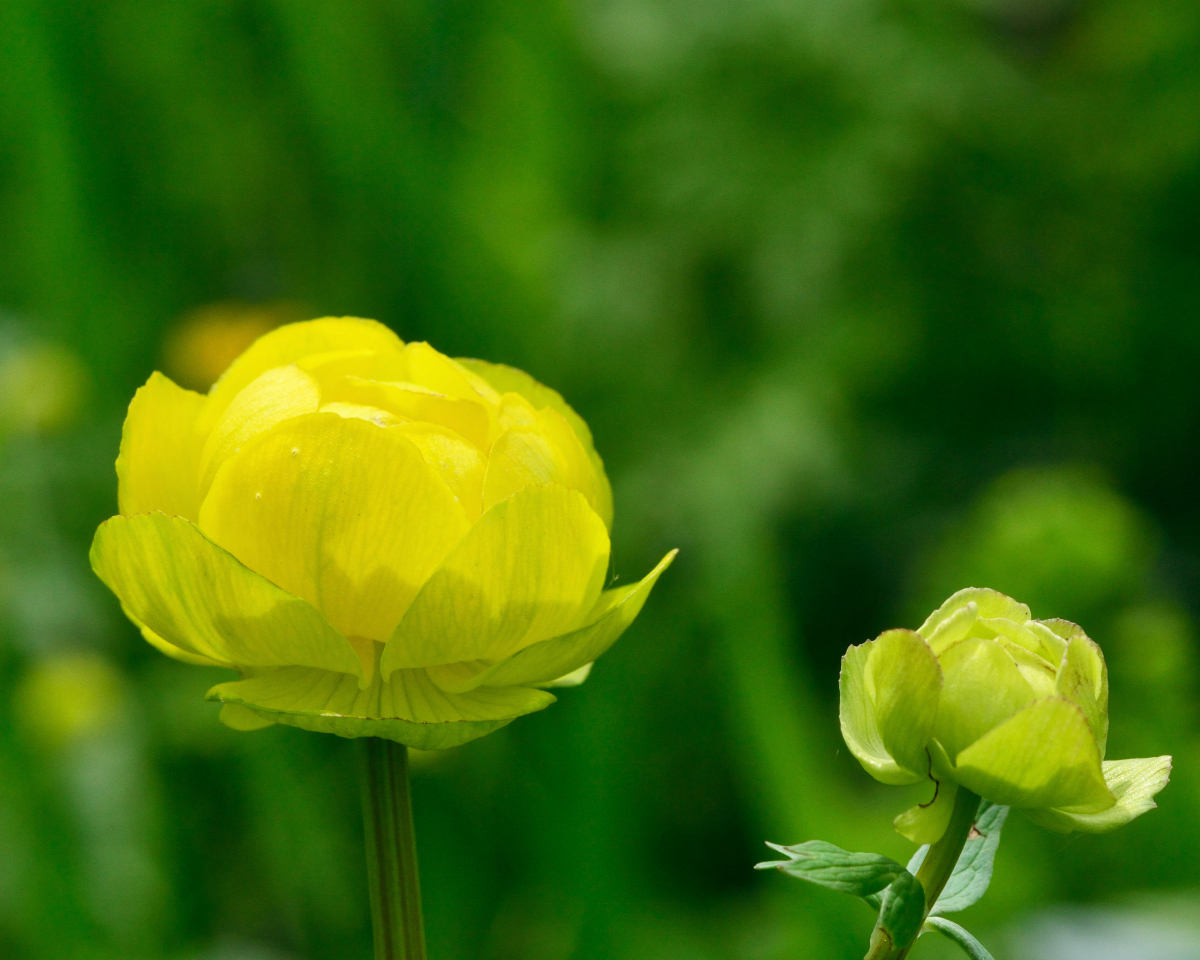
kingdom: Plantae
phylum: Tracheophyta
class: Magnoliopsida
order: Ranunculales
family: Ranunculaceae
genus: Trollius
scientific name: Trollius europaeus
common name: European globeflower
